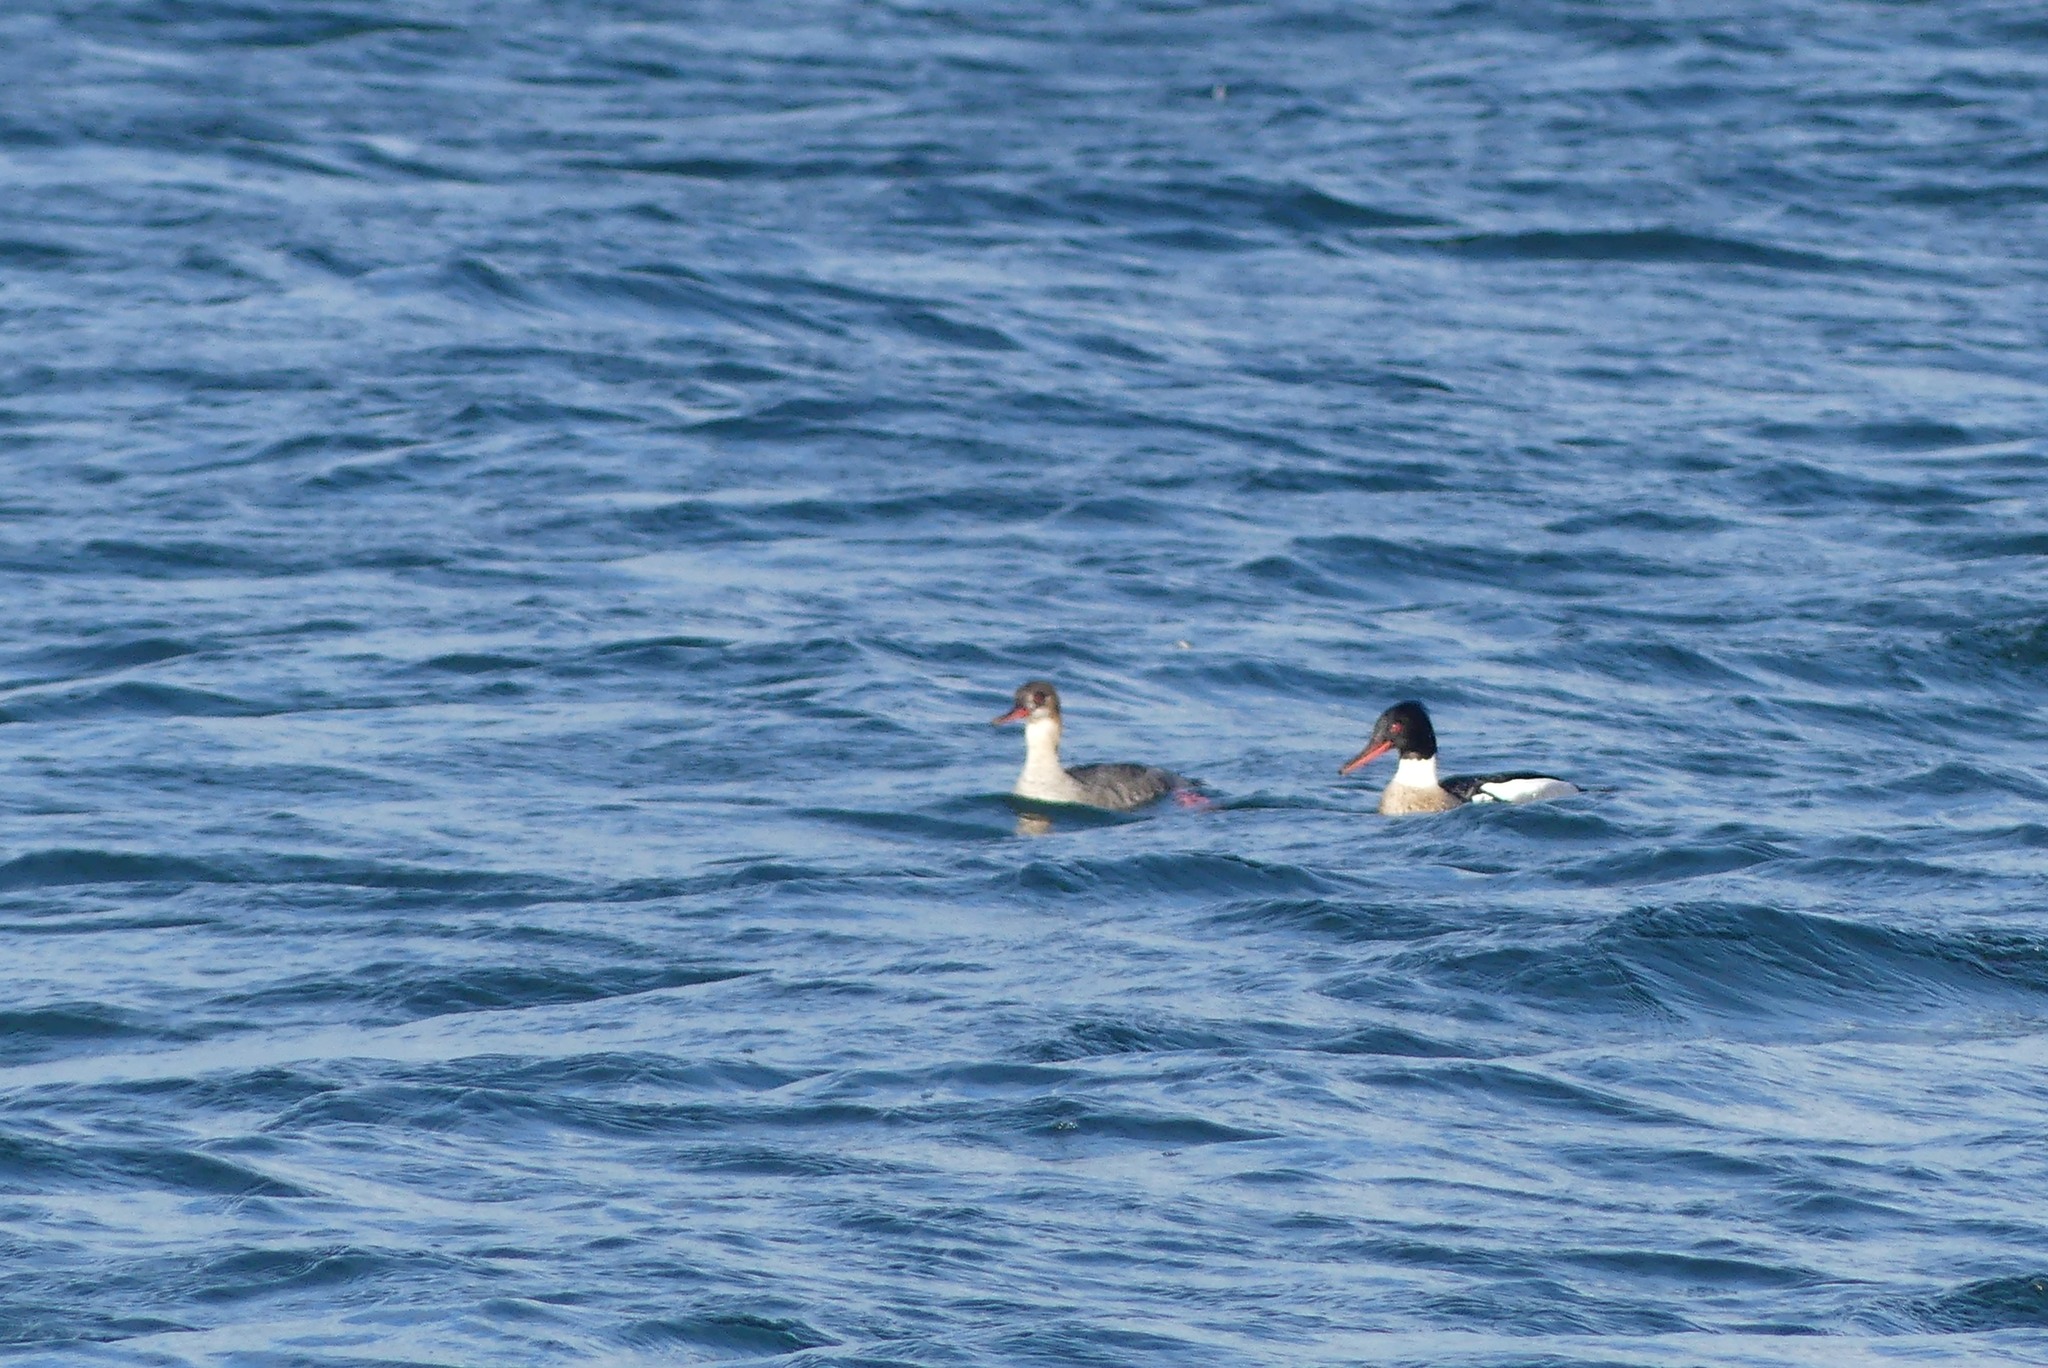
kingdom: Animalia
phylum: Chordata
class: Aves
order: Anseriformes
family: Anatidae
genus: Mergus
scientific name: Mergus serrator
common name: Red-breasted merganser
